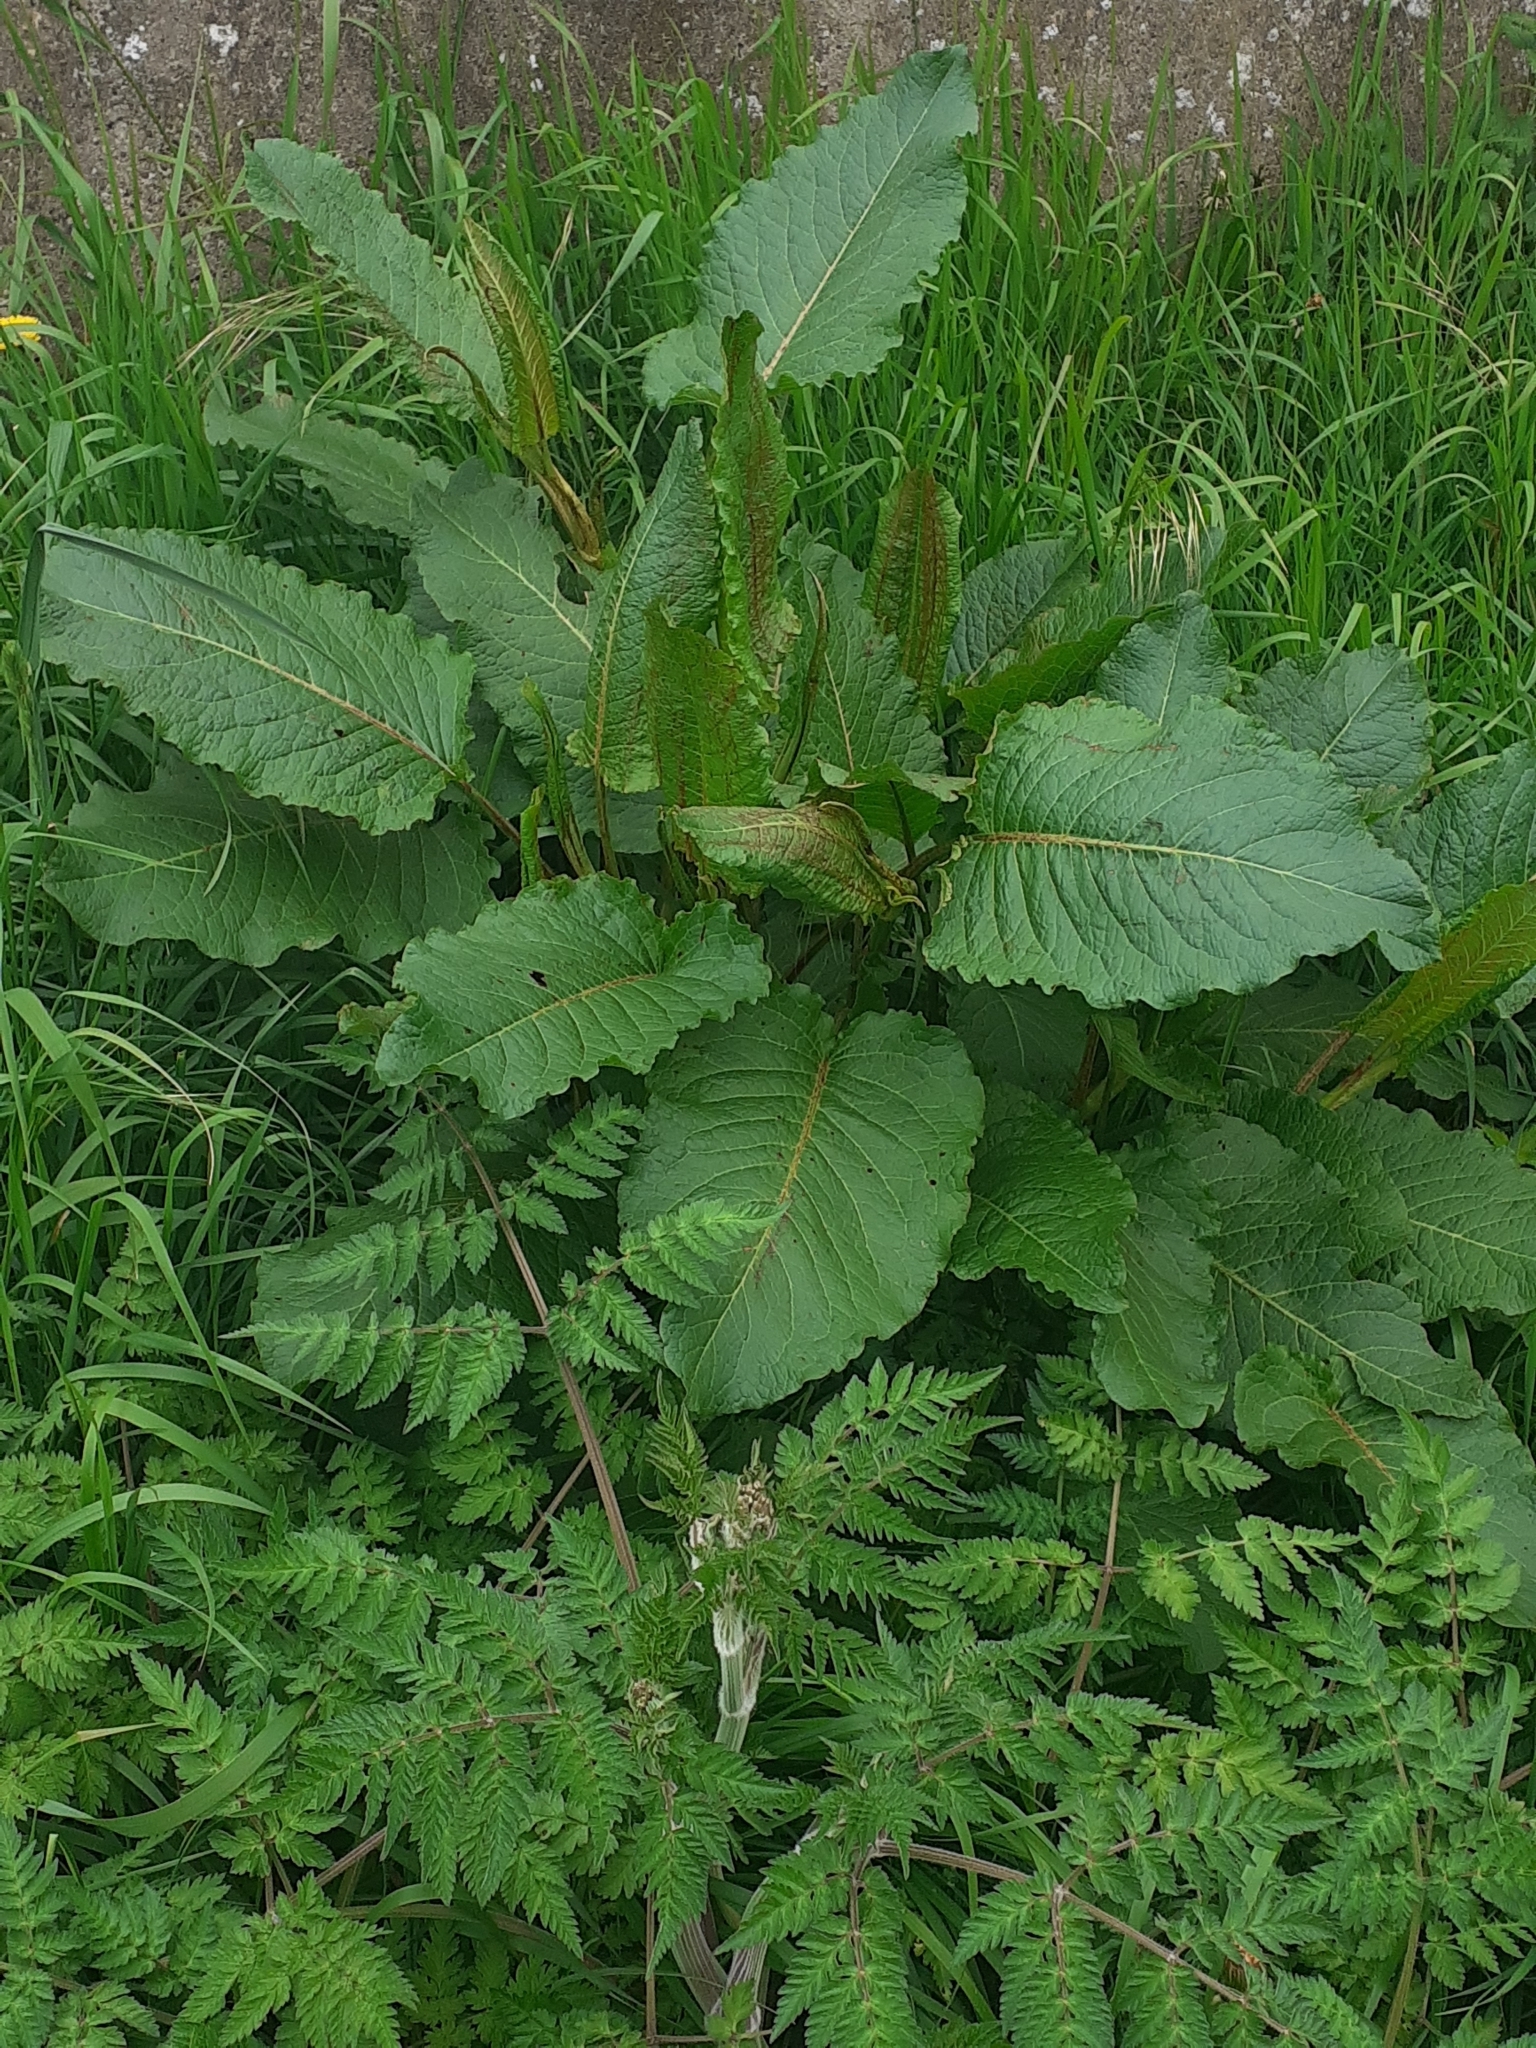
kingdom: Plantae
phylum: Tracheophyta
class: Magnoliopsida
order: Caryophyllales
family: Polygonaceae
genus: Rumex
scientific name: Rumex obtusifolius
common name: Bitter dock
